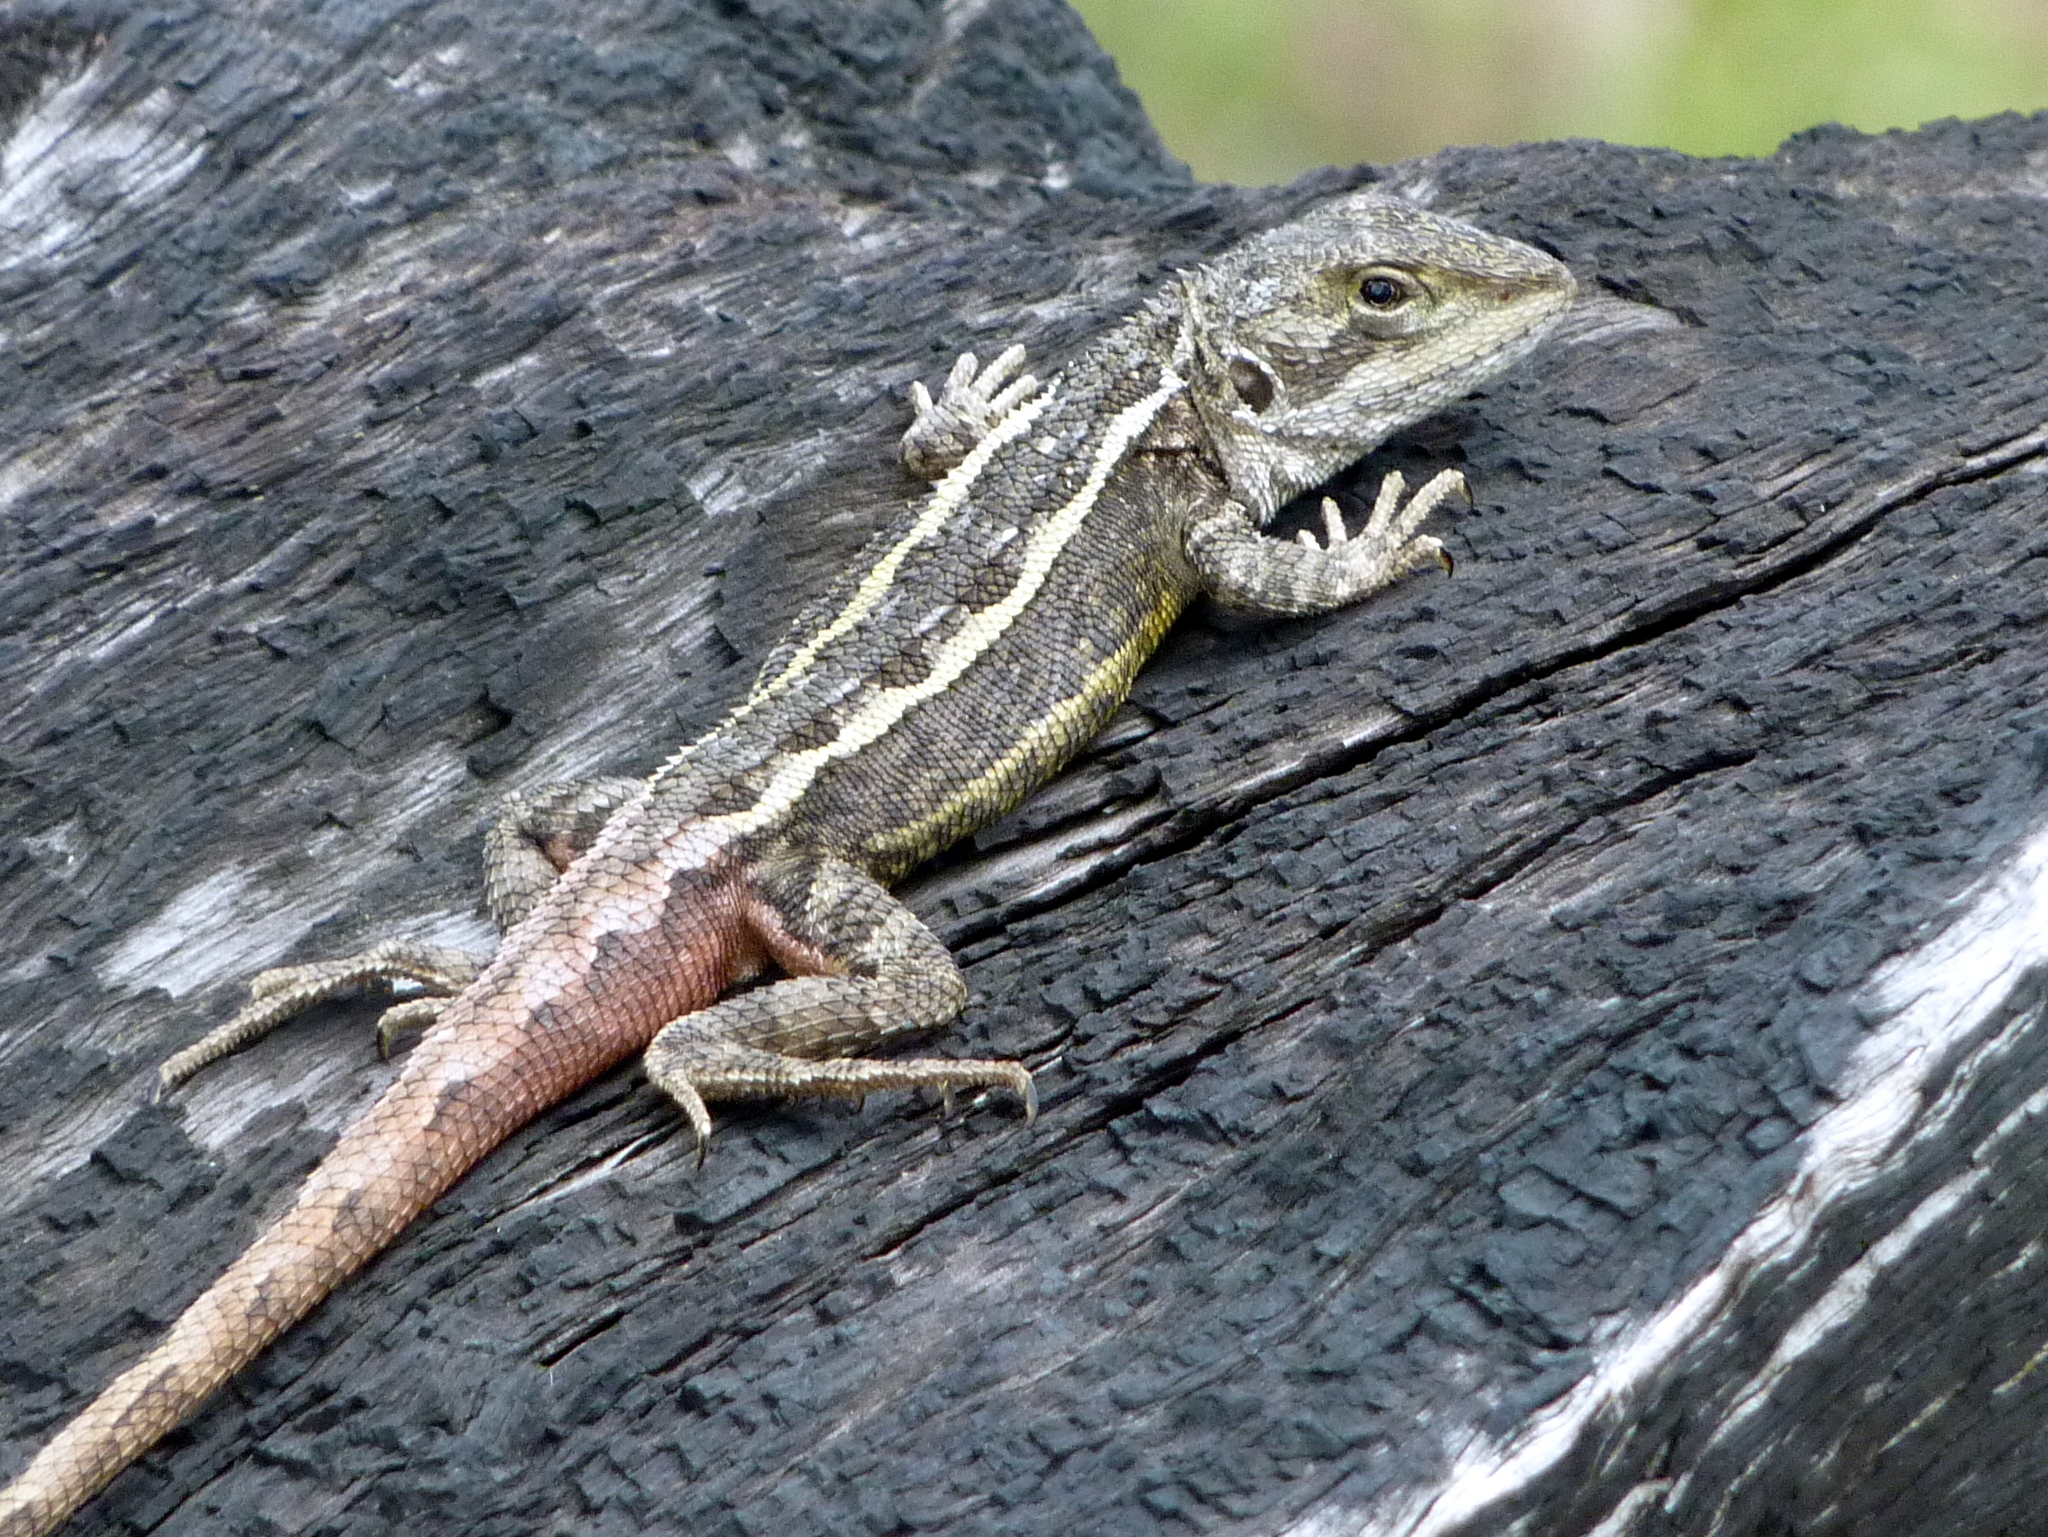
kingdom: Animalia
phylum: Chordata
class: Squamata
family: Agamidae
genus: Diporiphora
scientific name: Diporiphora nobbi
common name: Nobbi
